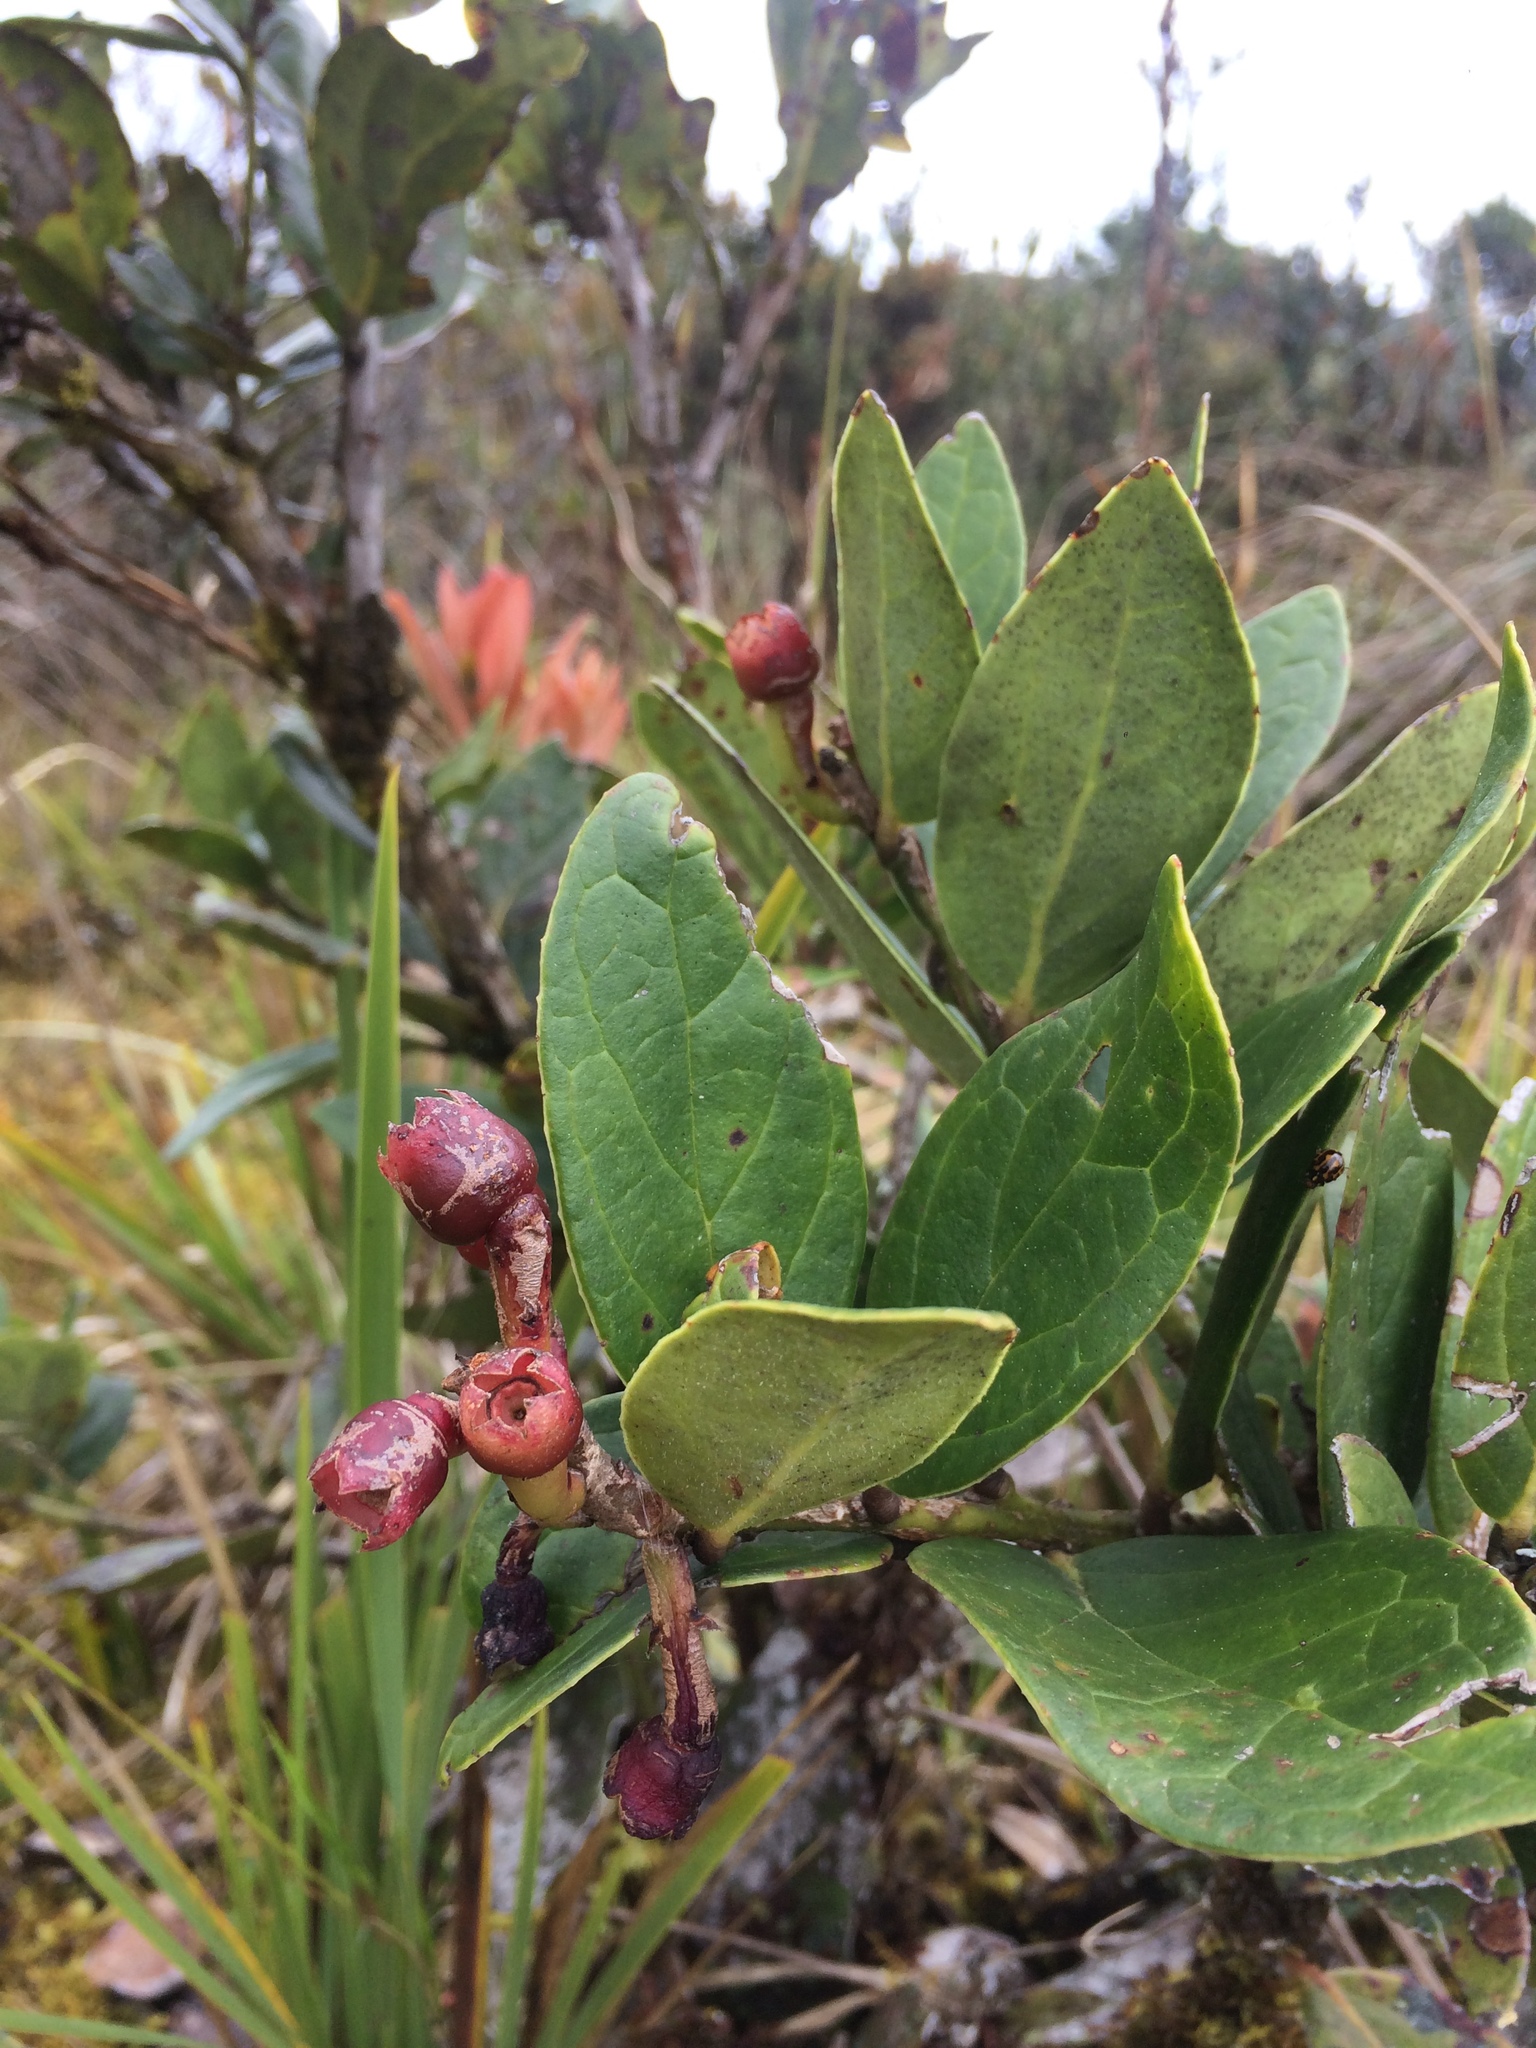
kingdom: Plantae
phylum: Tracheophyta
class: Magnoliopsida
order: Ericales
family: Ericaceae
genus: Macleania
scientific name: Macleania rupestris
